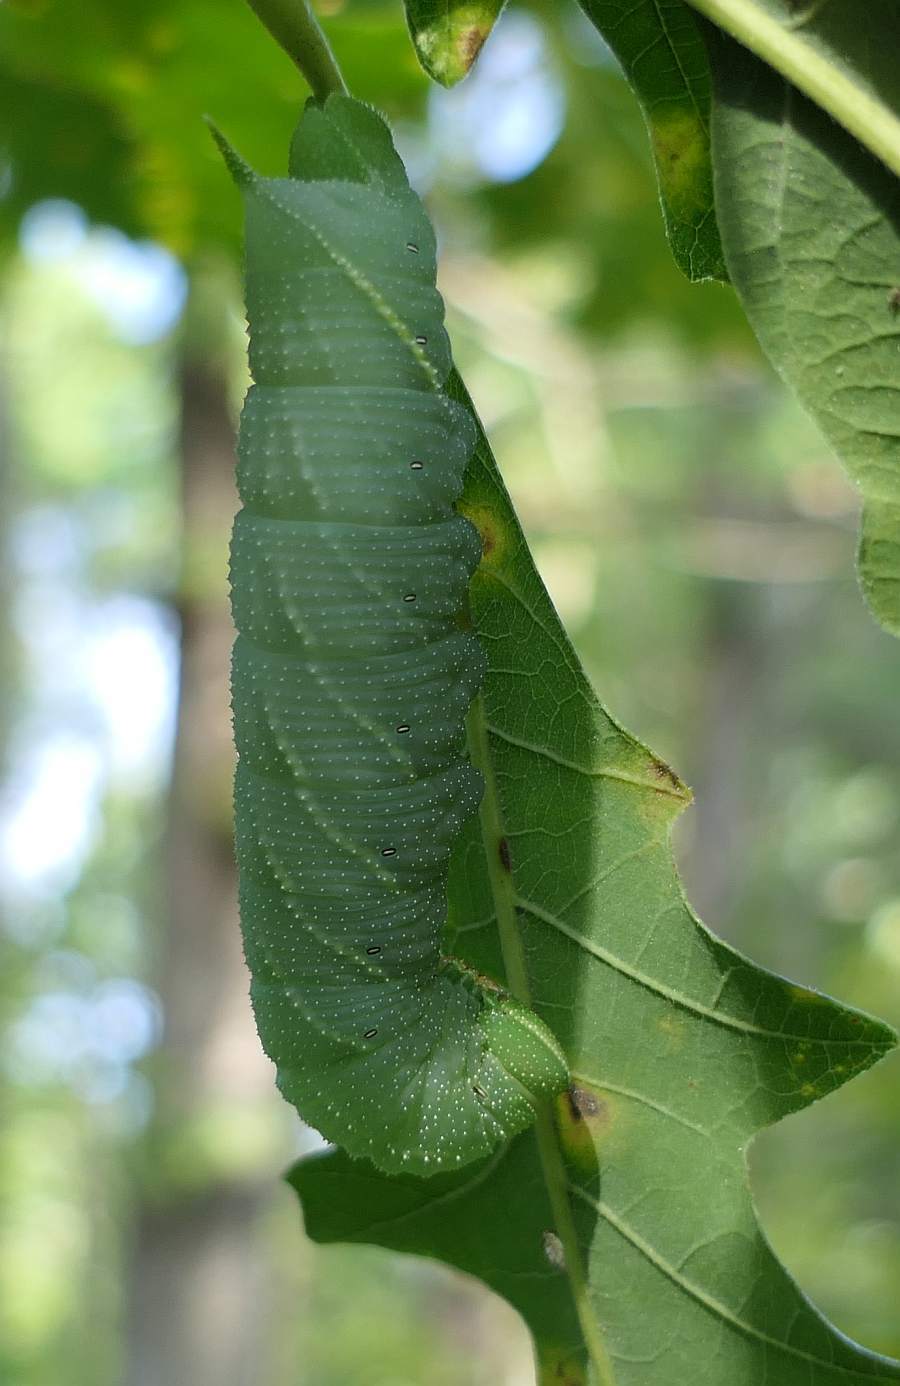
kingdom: Animalia
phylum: Arthropoda
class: Insecta
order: Lepidoptera
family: Sphingidae
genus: Paonias
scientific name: Paonias excaecata
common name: Blind-eyed sphinx
